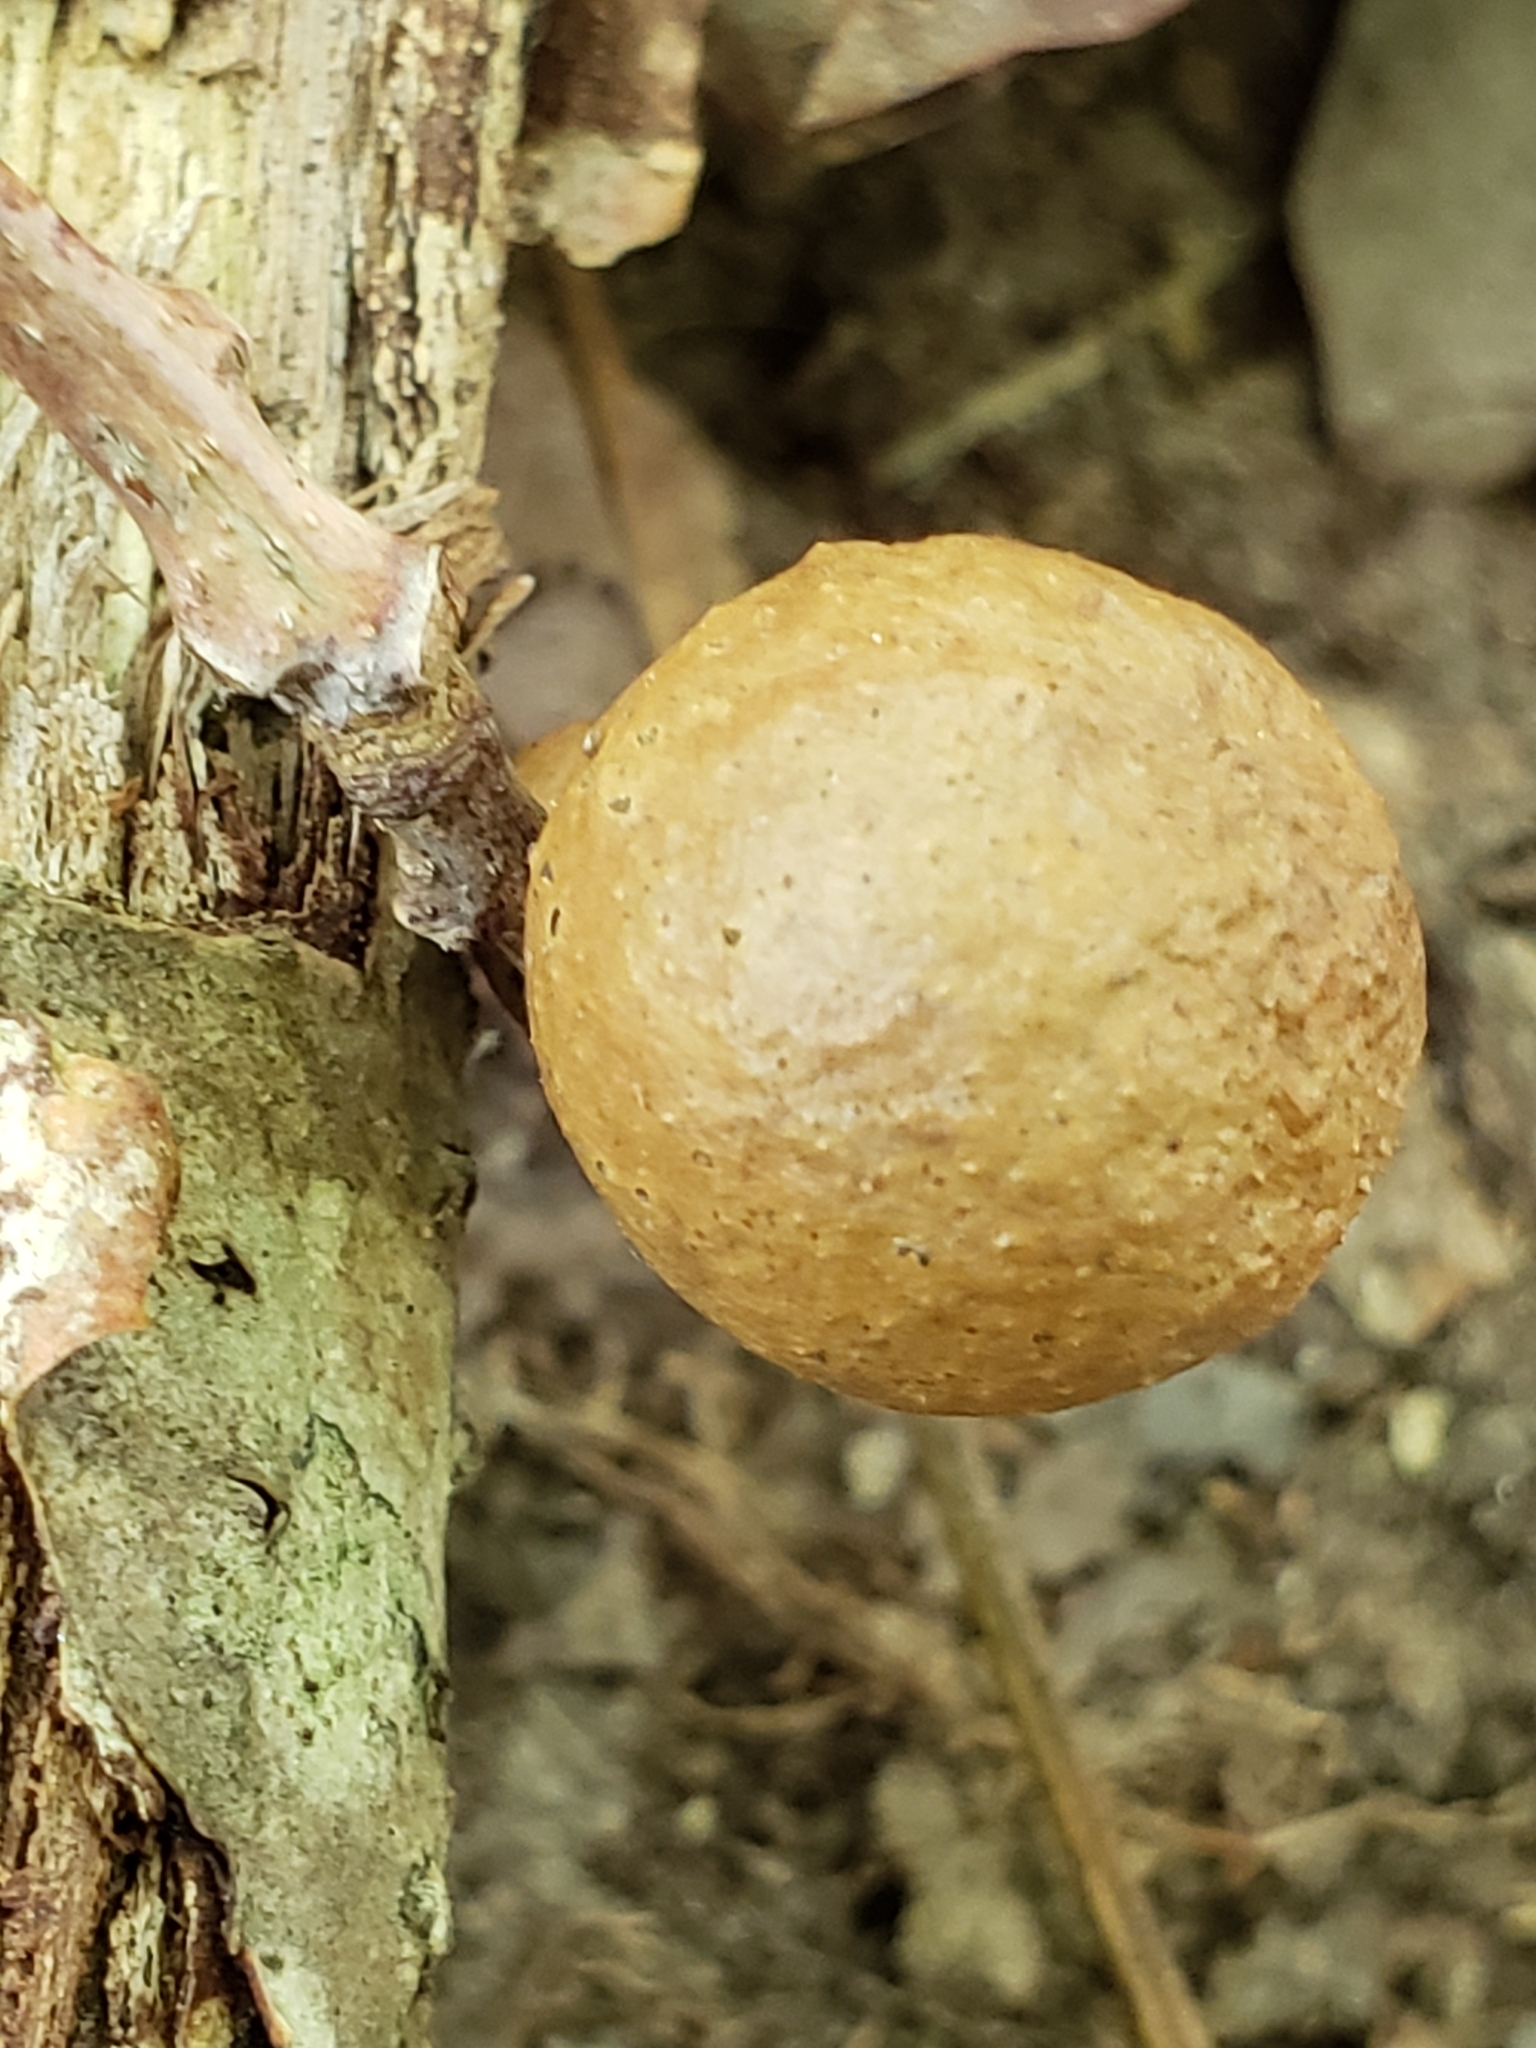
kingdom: Animalia
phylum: Arthropoda
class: Insecta
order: Hymenoptera
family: Cynipidae
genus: Disholcaspis
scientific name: Disholcaspis quercusglobulus
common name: Round bullet gall wasp
